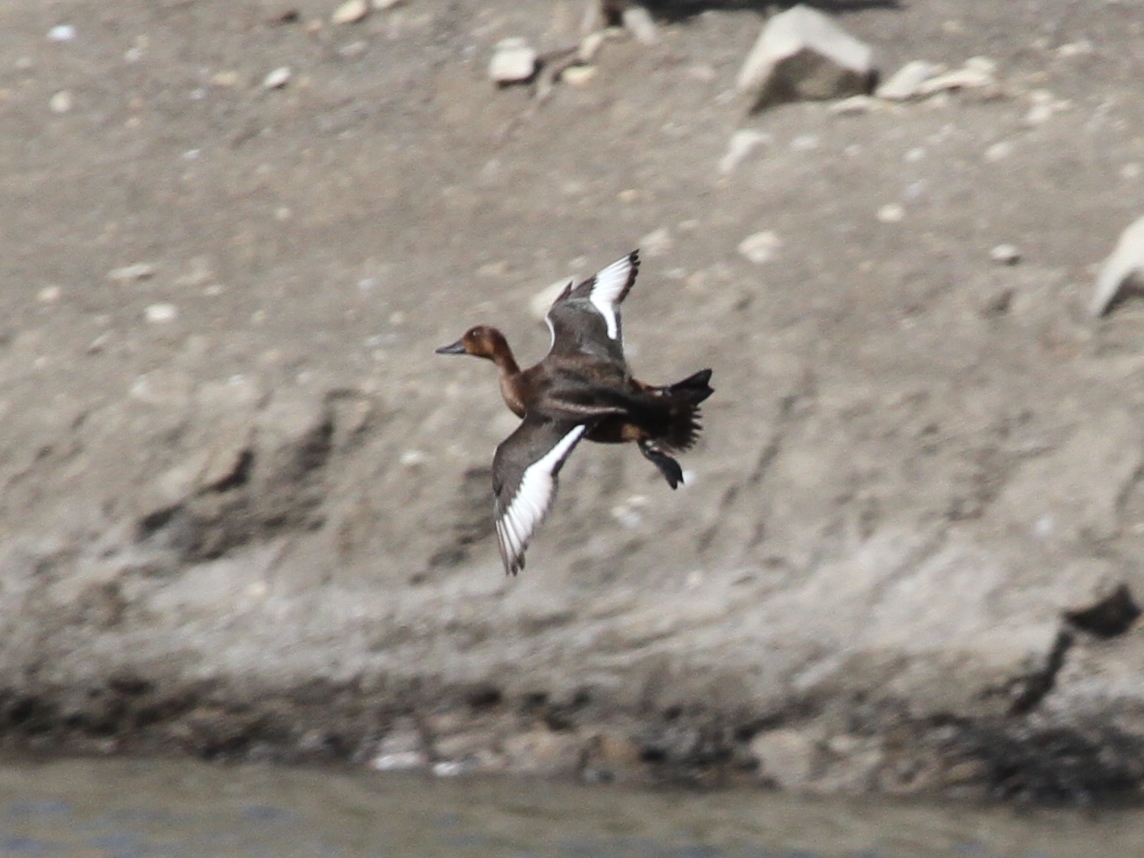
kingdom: Animalia
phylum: Chordata
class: Aves
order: Anseriformes
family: Anatidae
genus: Aythya
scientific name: Aythya nyroca
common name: Ferruginous duck
